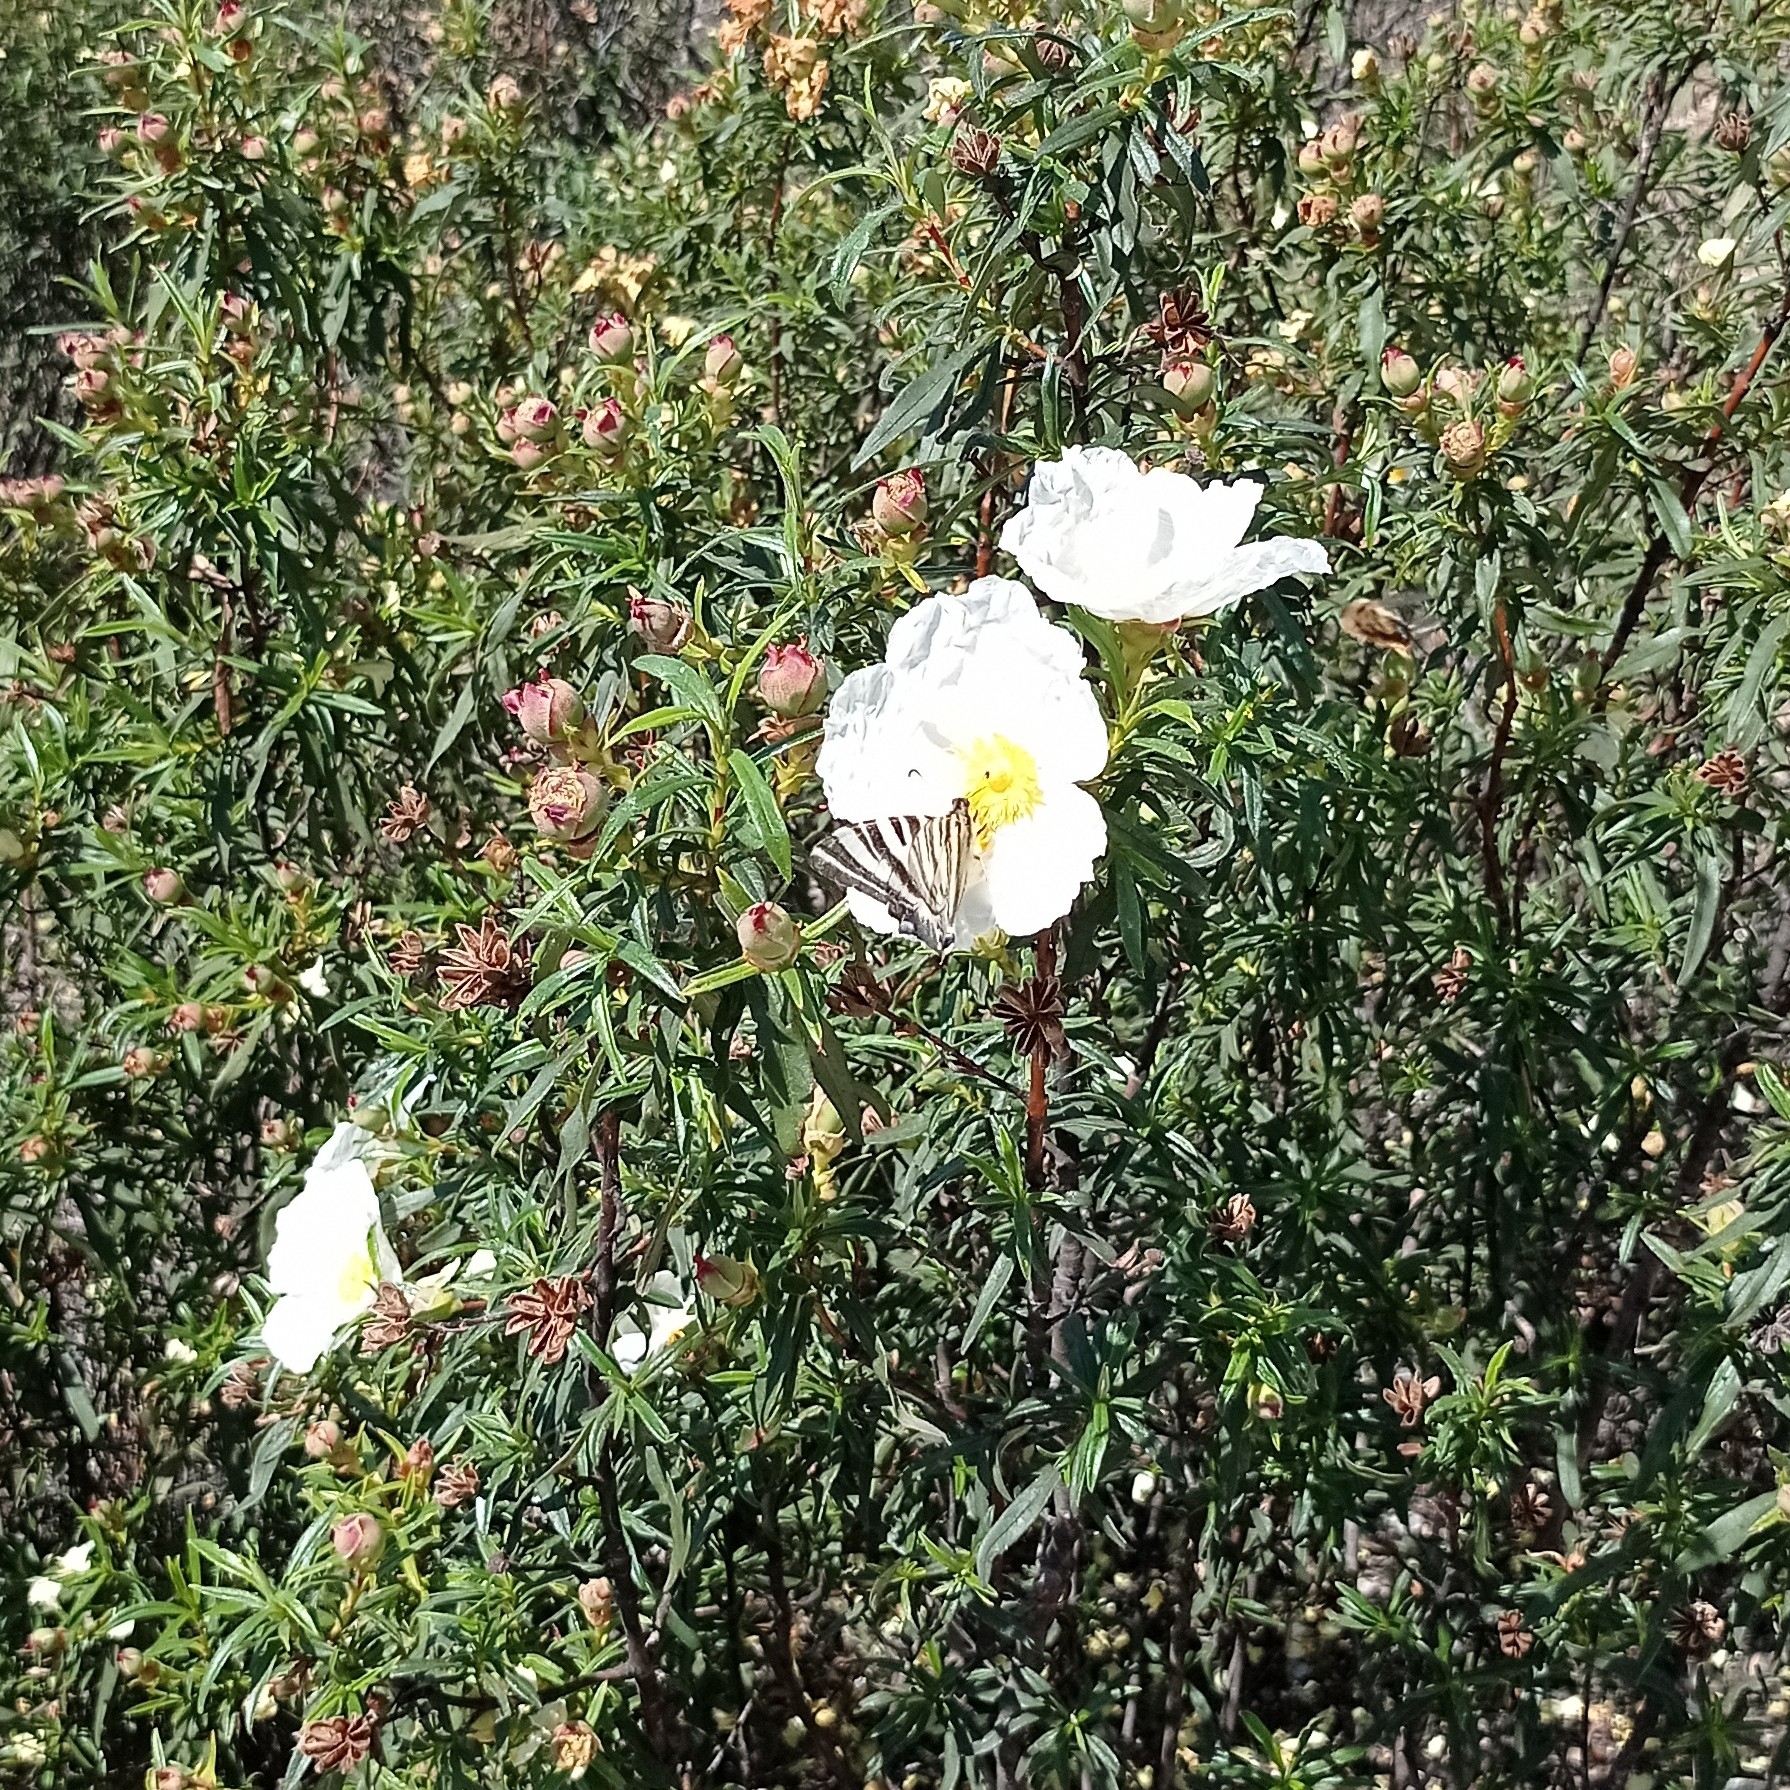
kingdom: Animalia
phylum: Arthropoda
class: Insecta
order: Lepidoptera
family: Papilionidae
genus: Iphiclides
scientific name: Iphiclides feisthamelii
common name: Iberian scarce swallowtail
